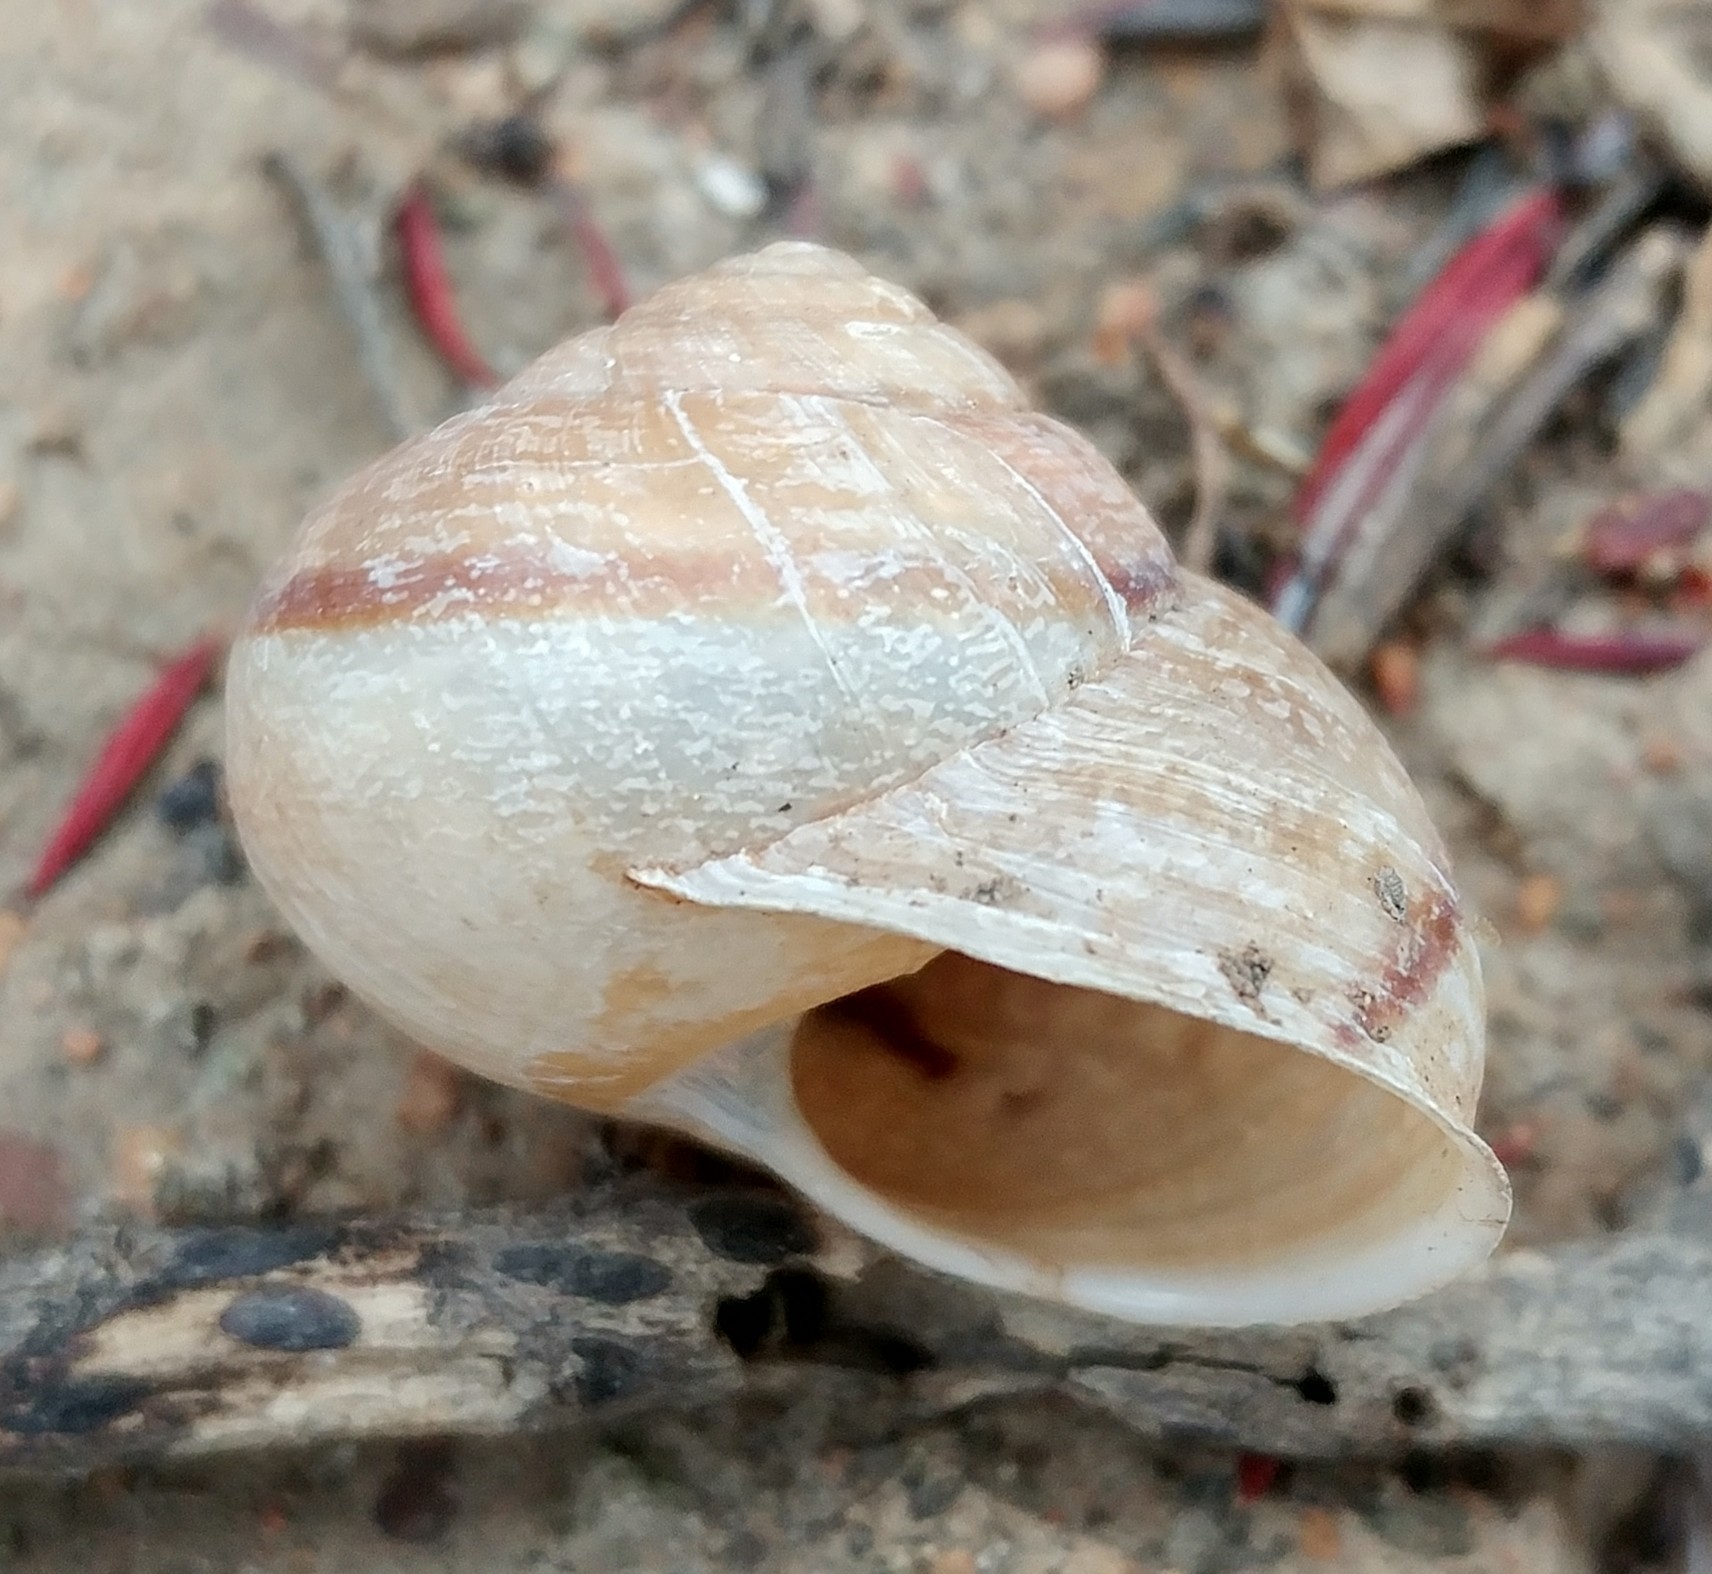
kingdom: Animalia
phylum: Mollusca
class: Gastropoda
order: Stylommatophora
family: Xanthonychidae
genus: Xerarionta
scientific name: Xerarionta stearnsiana
